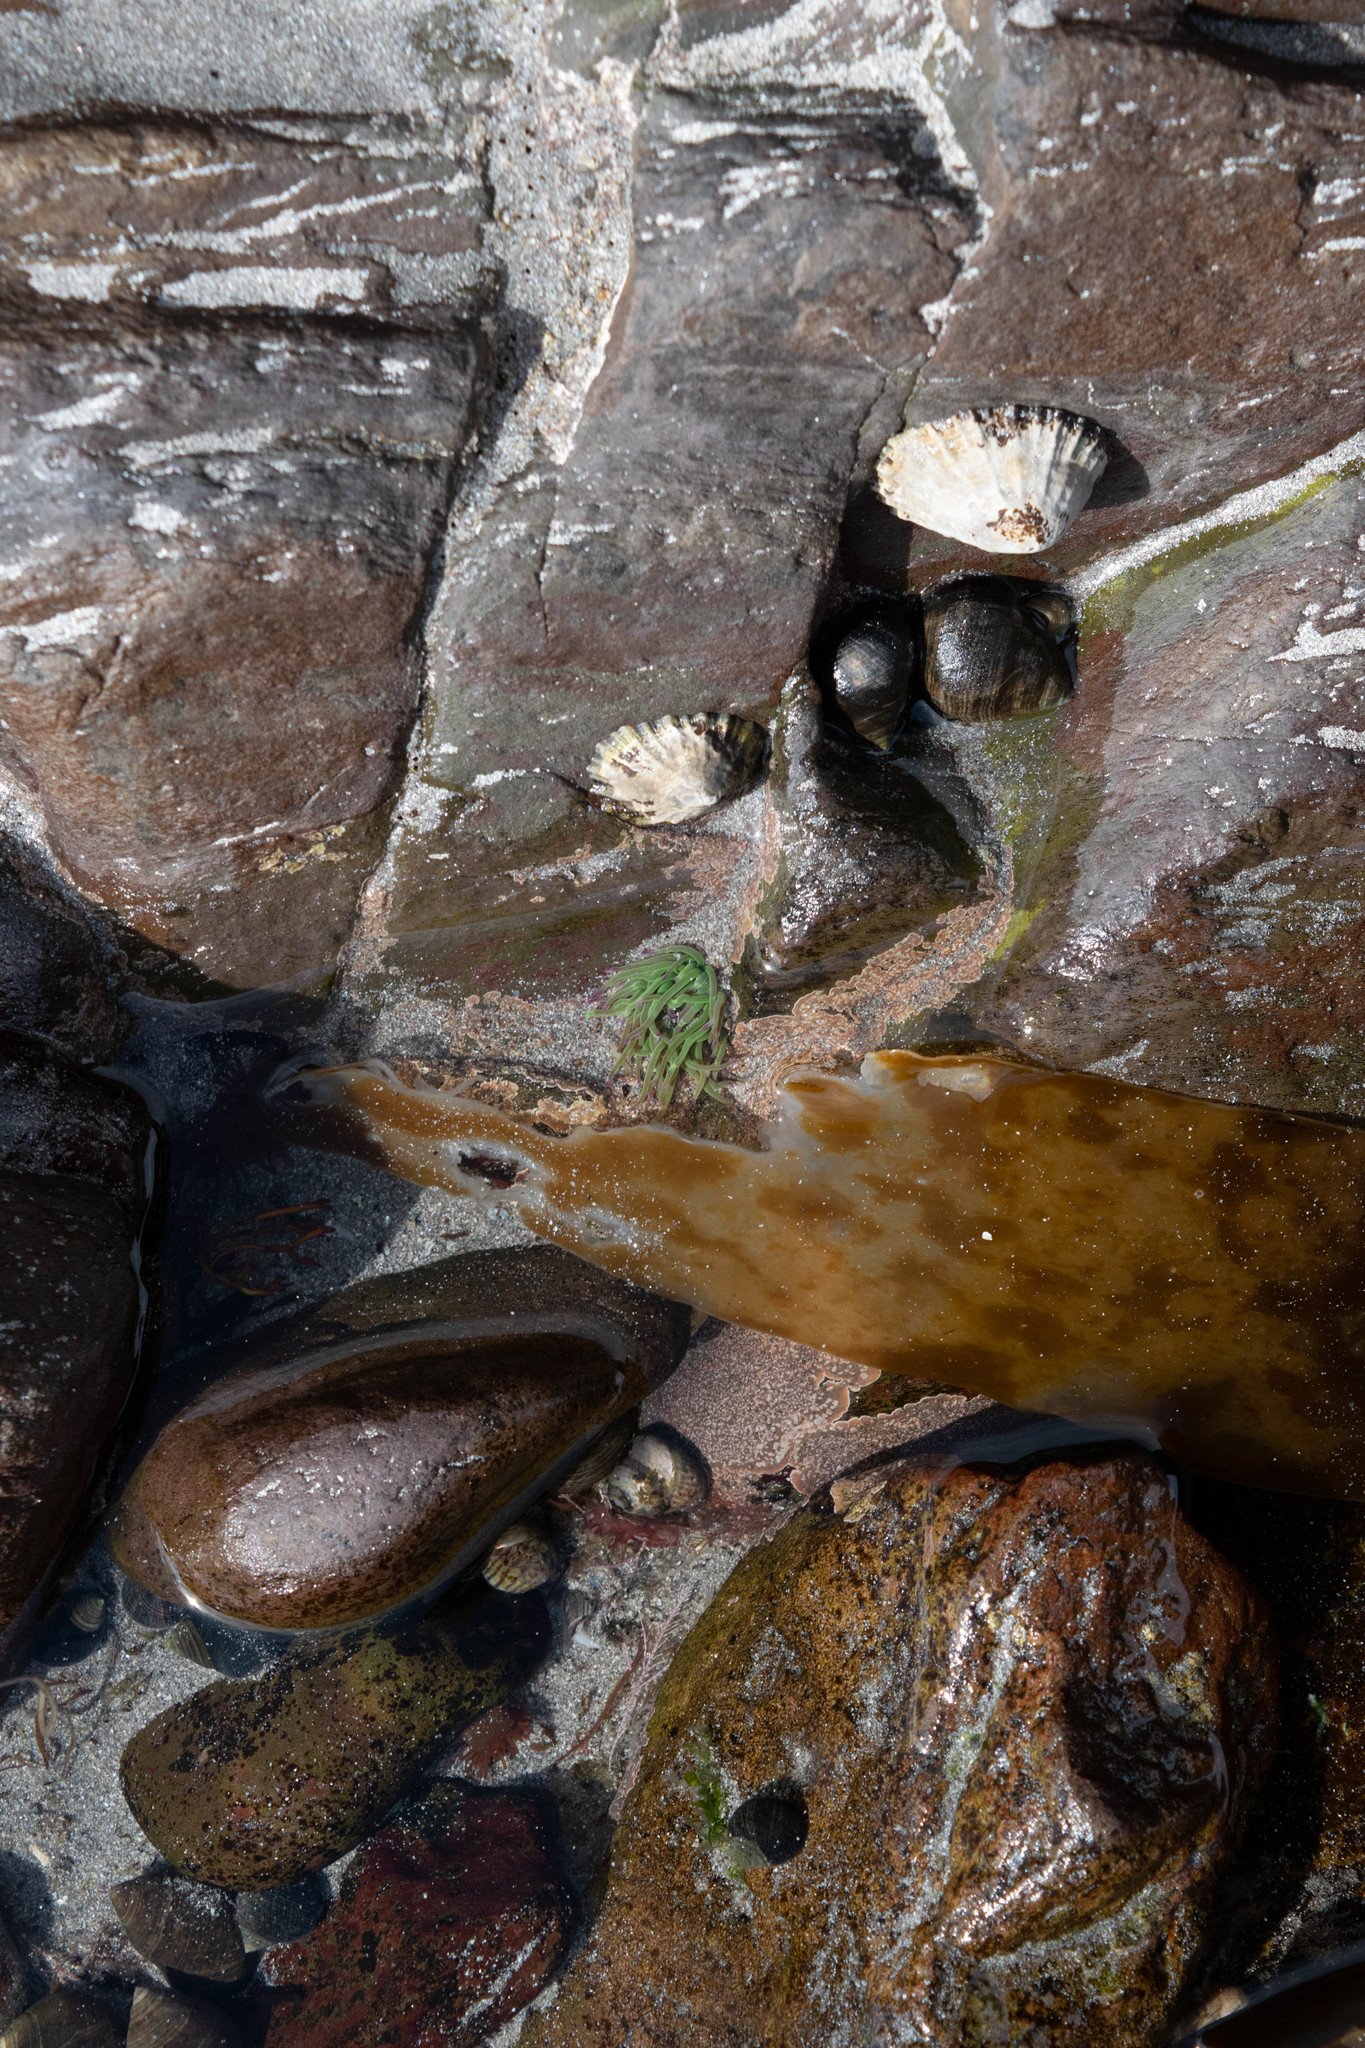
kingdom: Animalia
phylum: Cnidaria
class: Anthozoa
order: Actiniaria
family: Actiniidae
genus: Anemonia
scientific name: Anemonia viridis
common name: Snakelocks anemone
